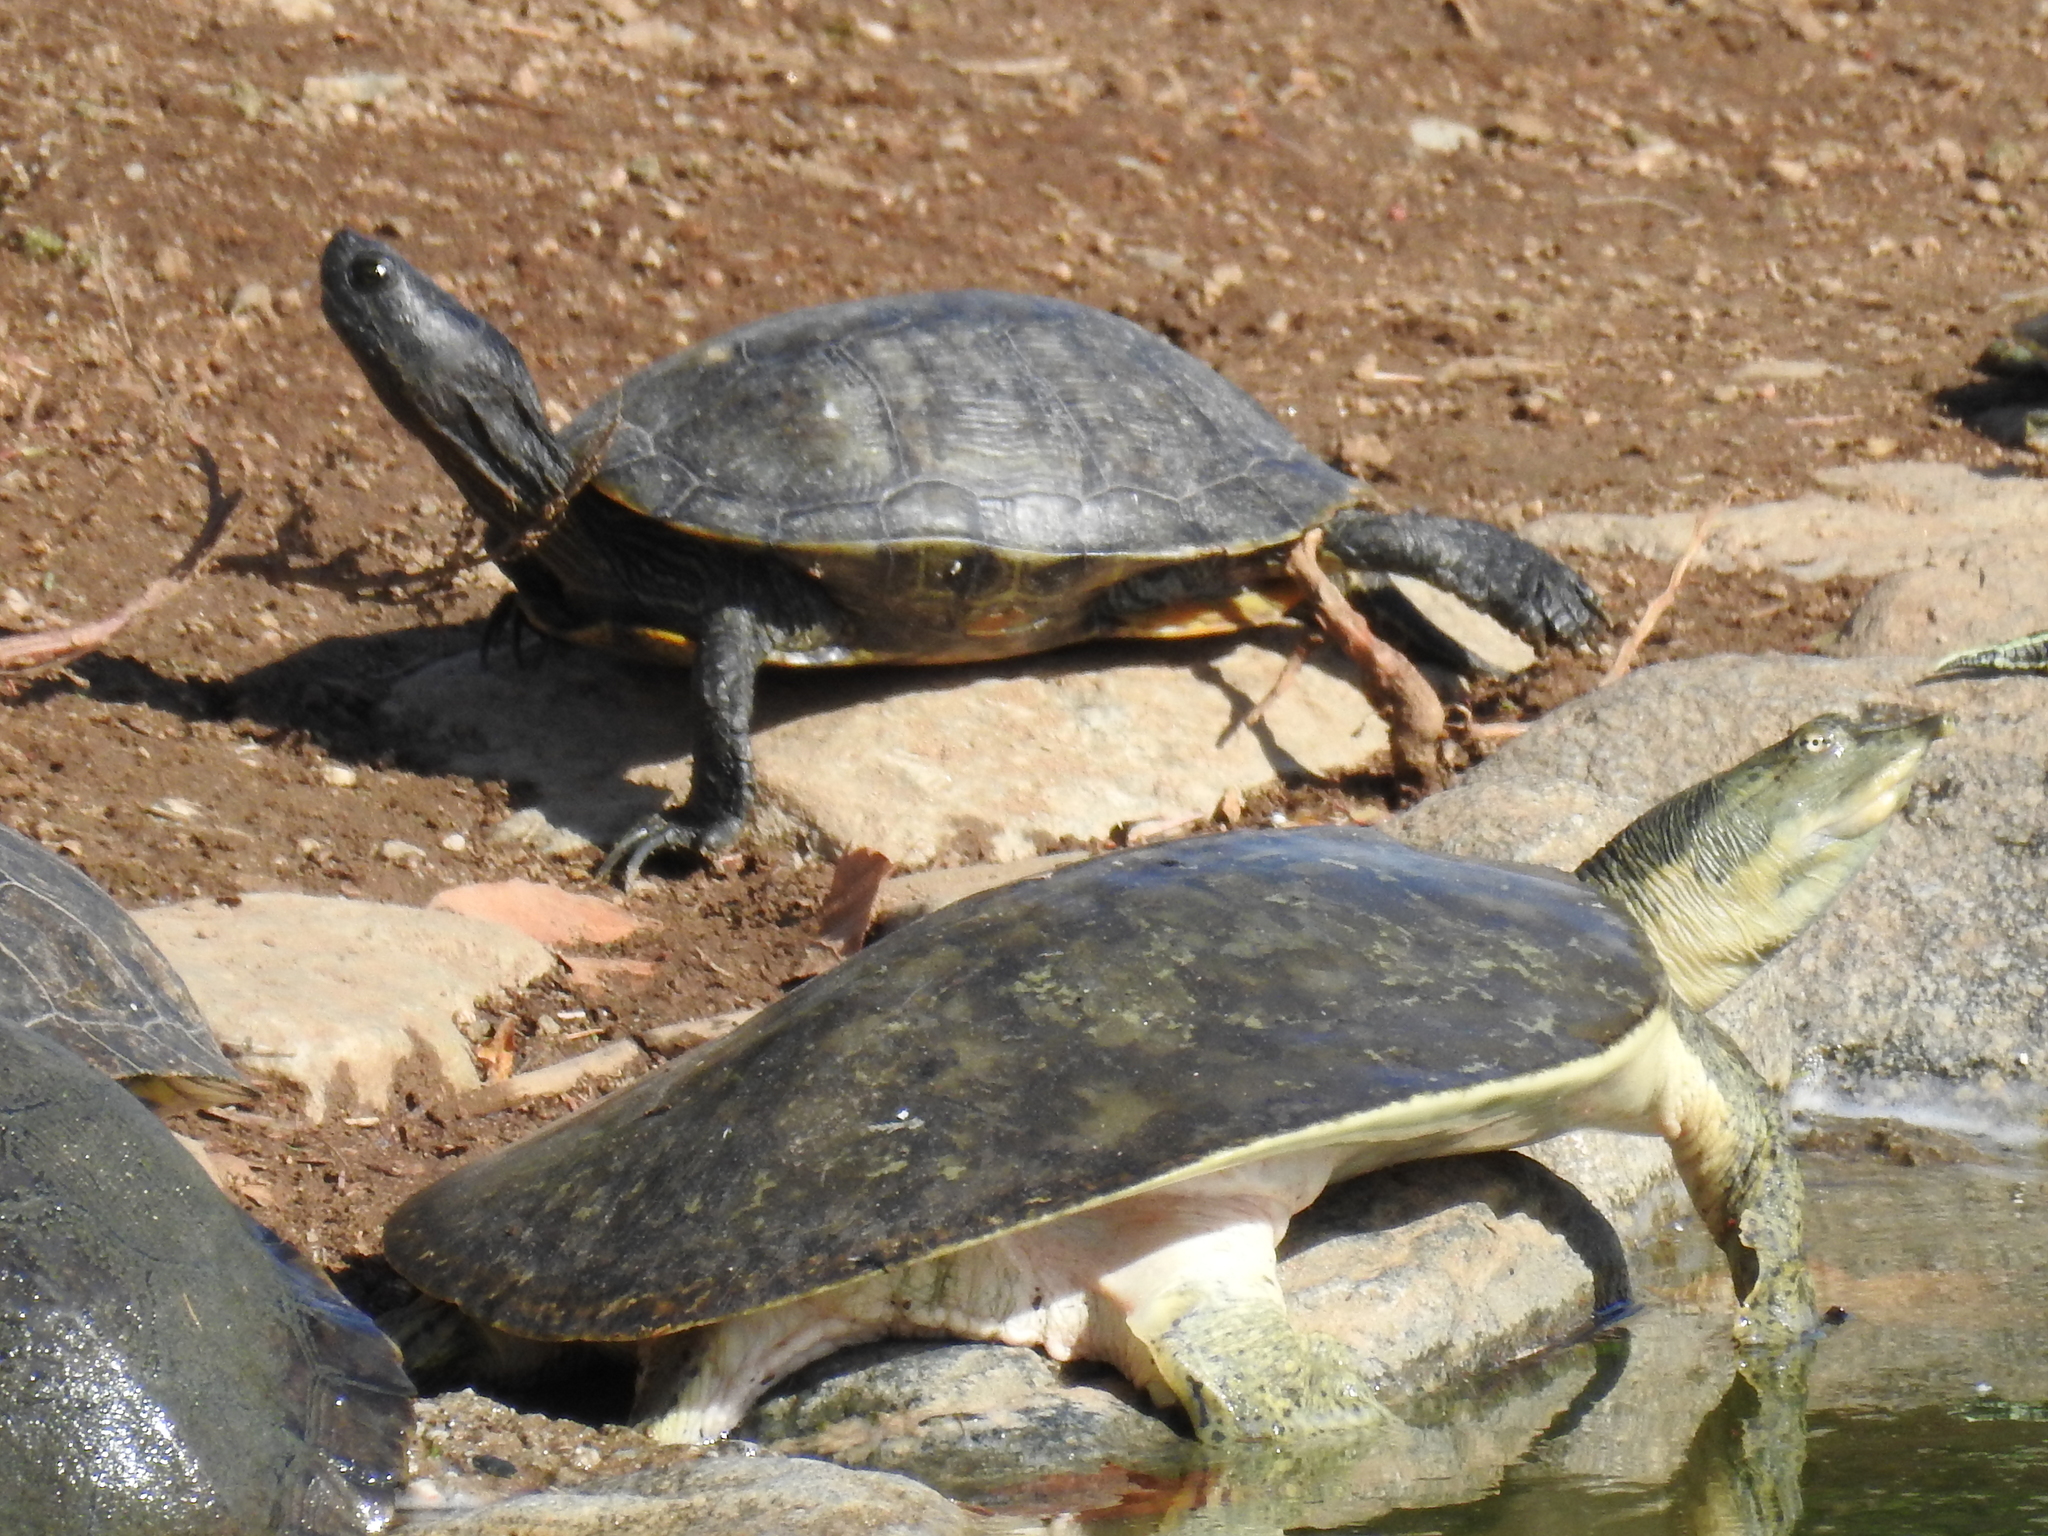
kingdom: Animalia
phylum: Chordata
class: Testudines
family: Trionychidae
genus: Apalone
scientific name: Apalone spinifera
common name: Spiny softshell turtle
